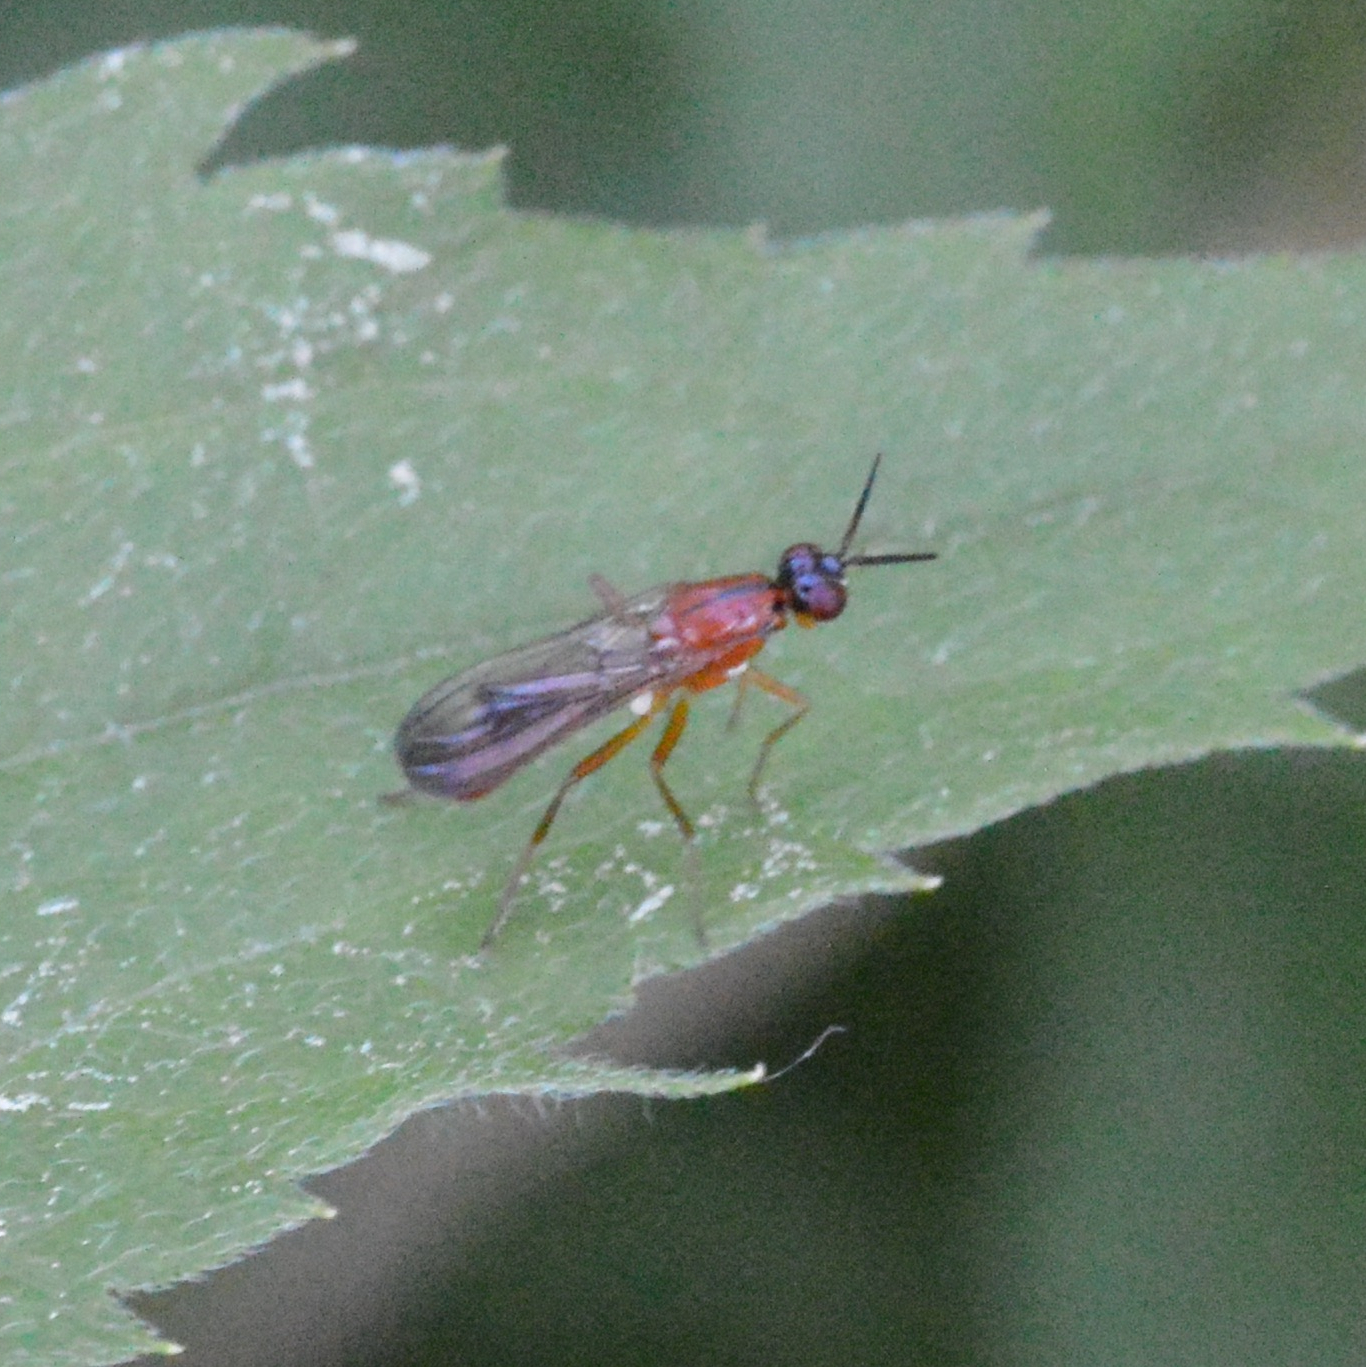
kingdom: Animalia
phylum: Arthropoda
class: Insecta
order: Diptera
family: Psilidae
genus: Loxocera
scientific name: Loxocera
